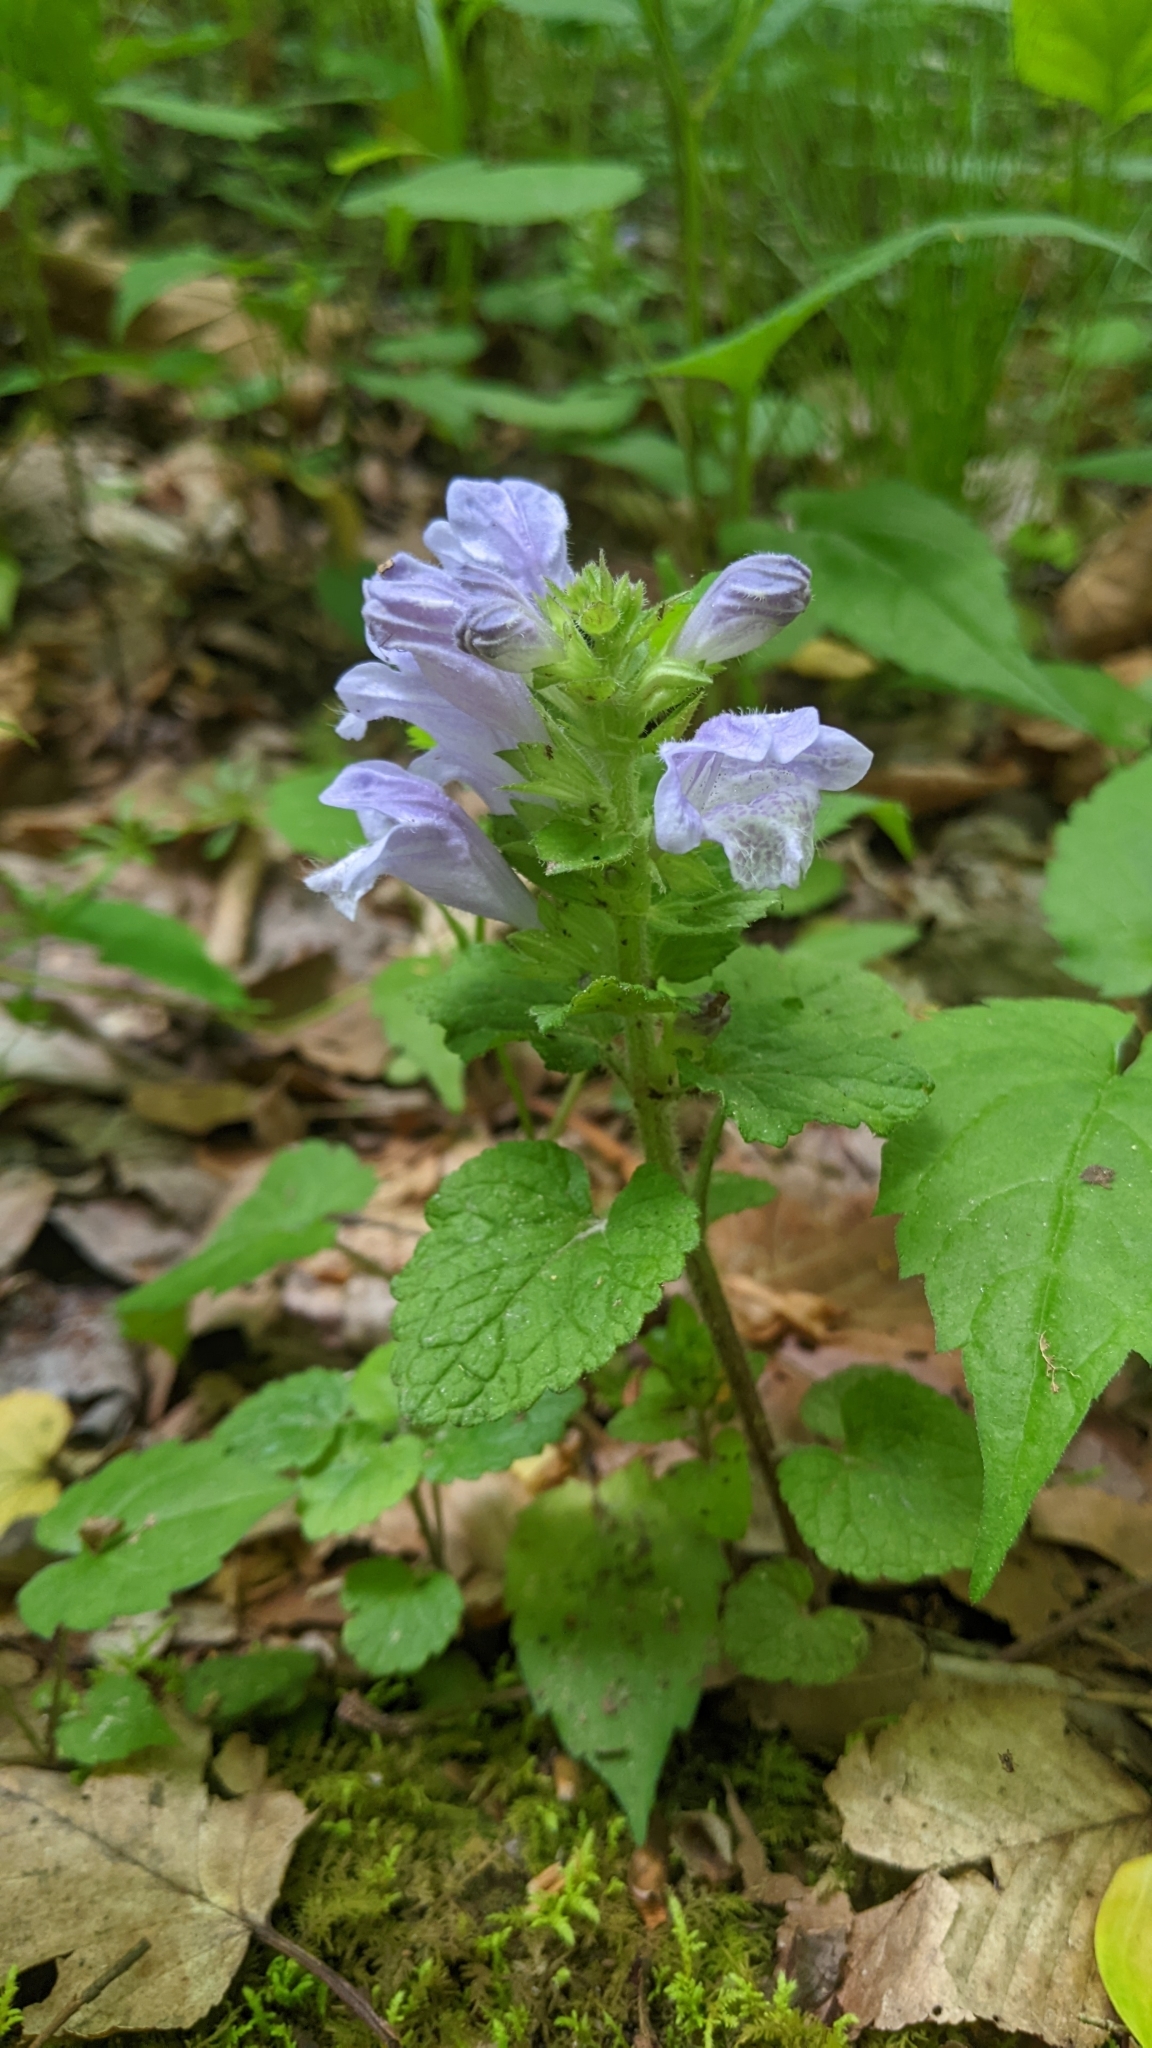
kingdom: Plantae
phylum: Tracheophyta
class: Magnoliopsida
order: Lamiales
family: Lamiaceae
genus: Meehania
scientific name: Meehania cordata
